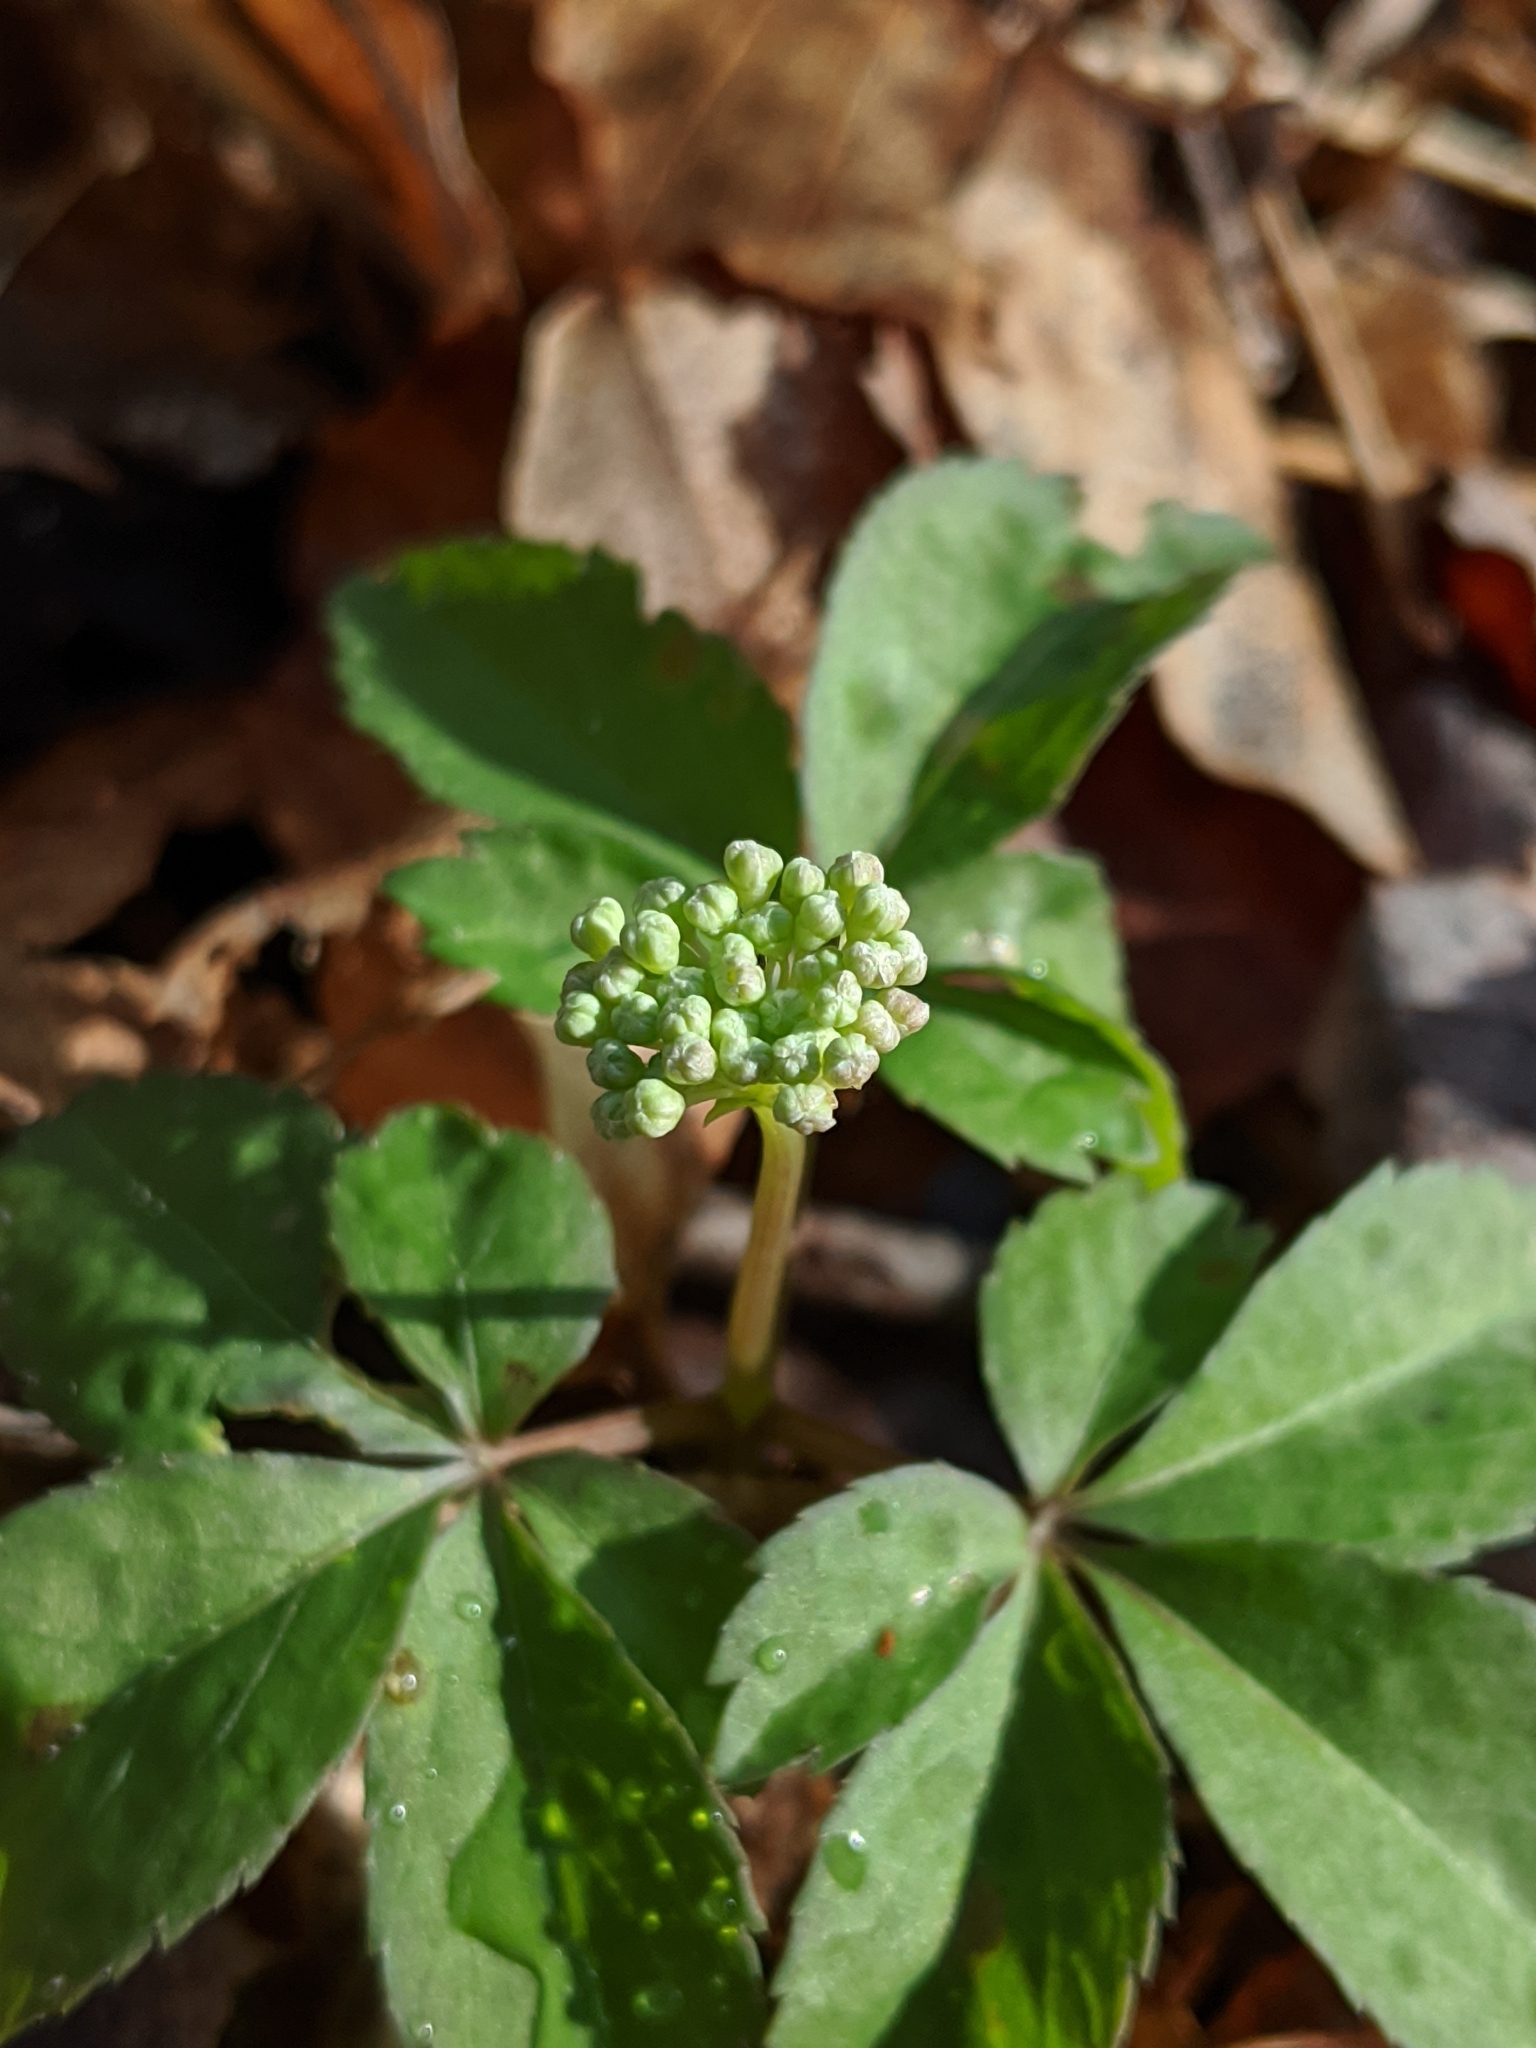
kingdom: Plantae
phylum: Tracheophyta
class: Magnoliopsida
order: Apiales
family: Araliaceae
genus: Panax
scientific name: Panax trifolius
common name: Dwarf ginseng
